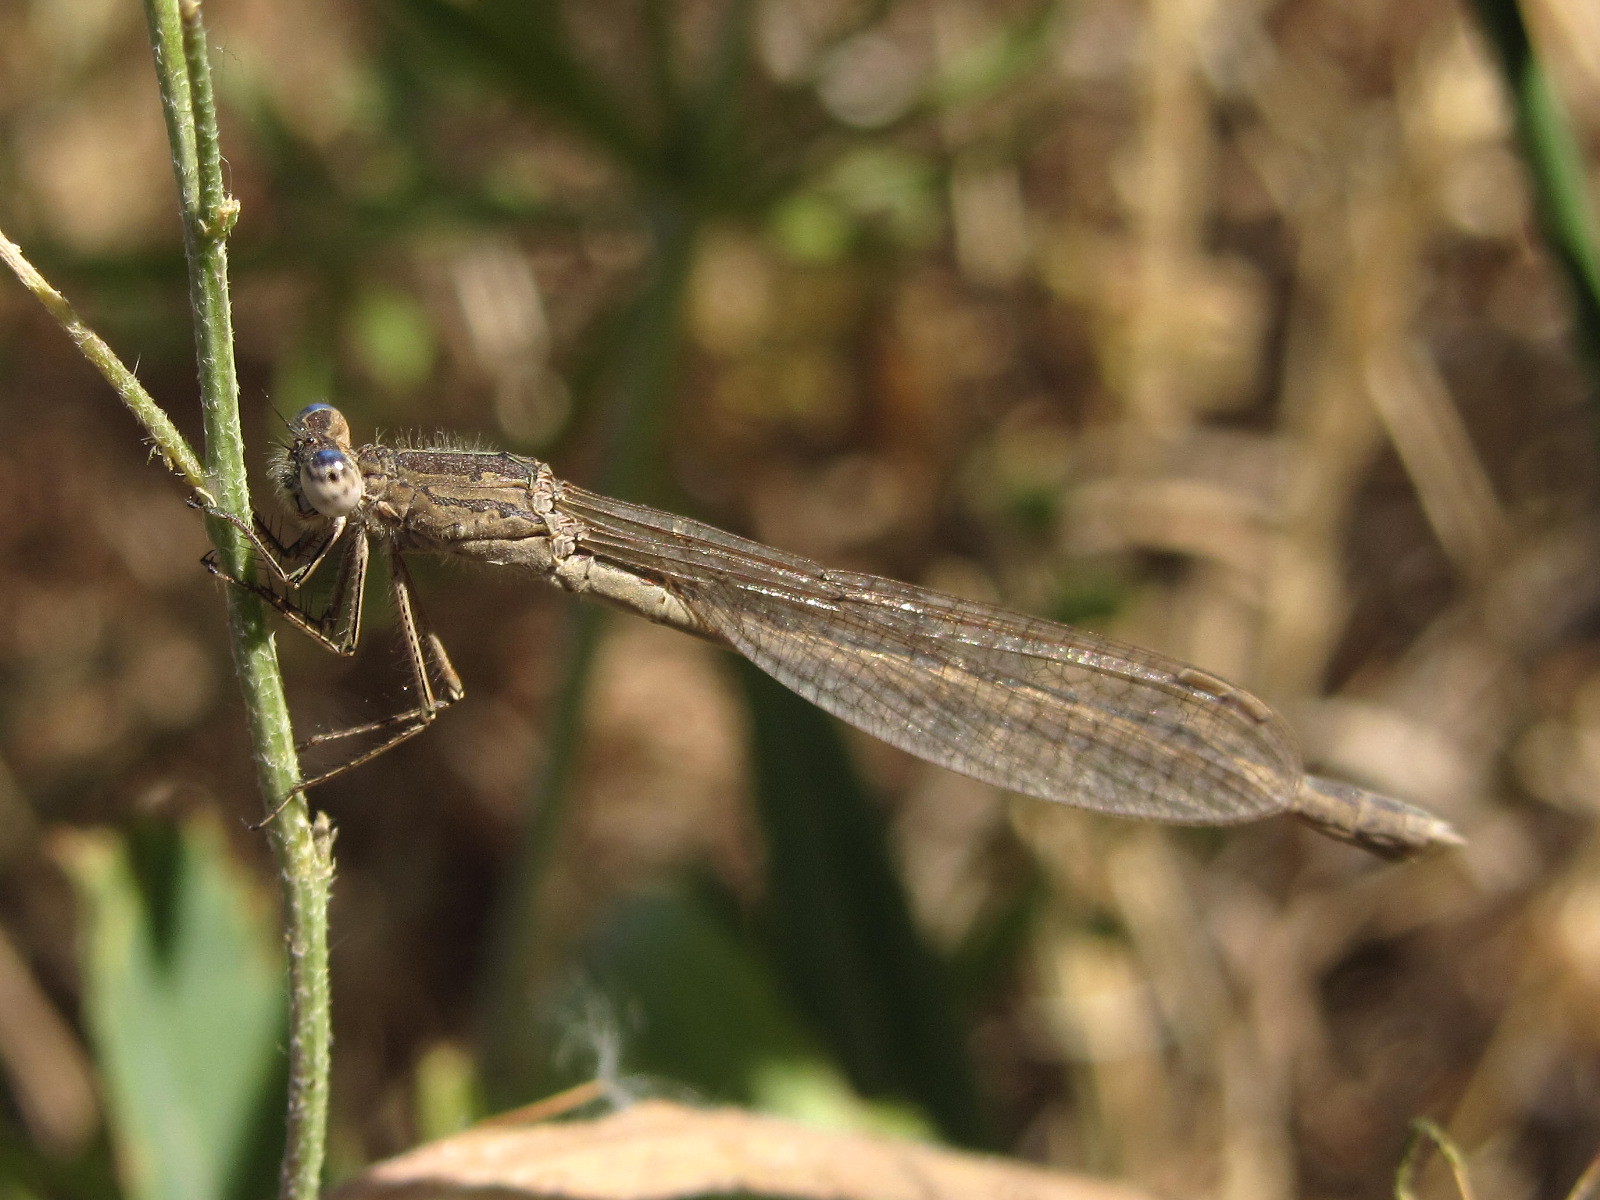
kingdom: Animalia
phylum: Arthropoda
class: Insecta
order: Odonata
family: Lestidae
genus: Sympecma
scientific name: Sympecma paedisca
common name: Siberian winter damsel
